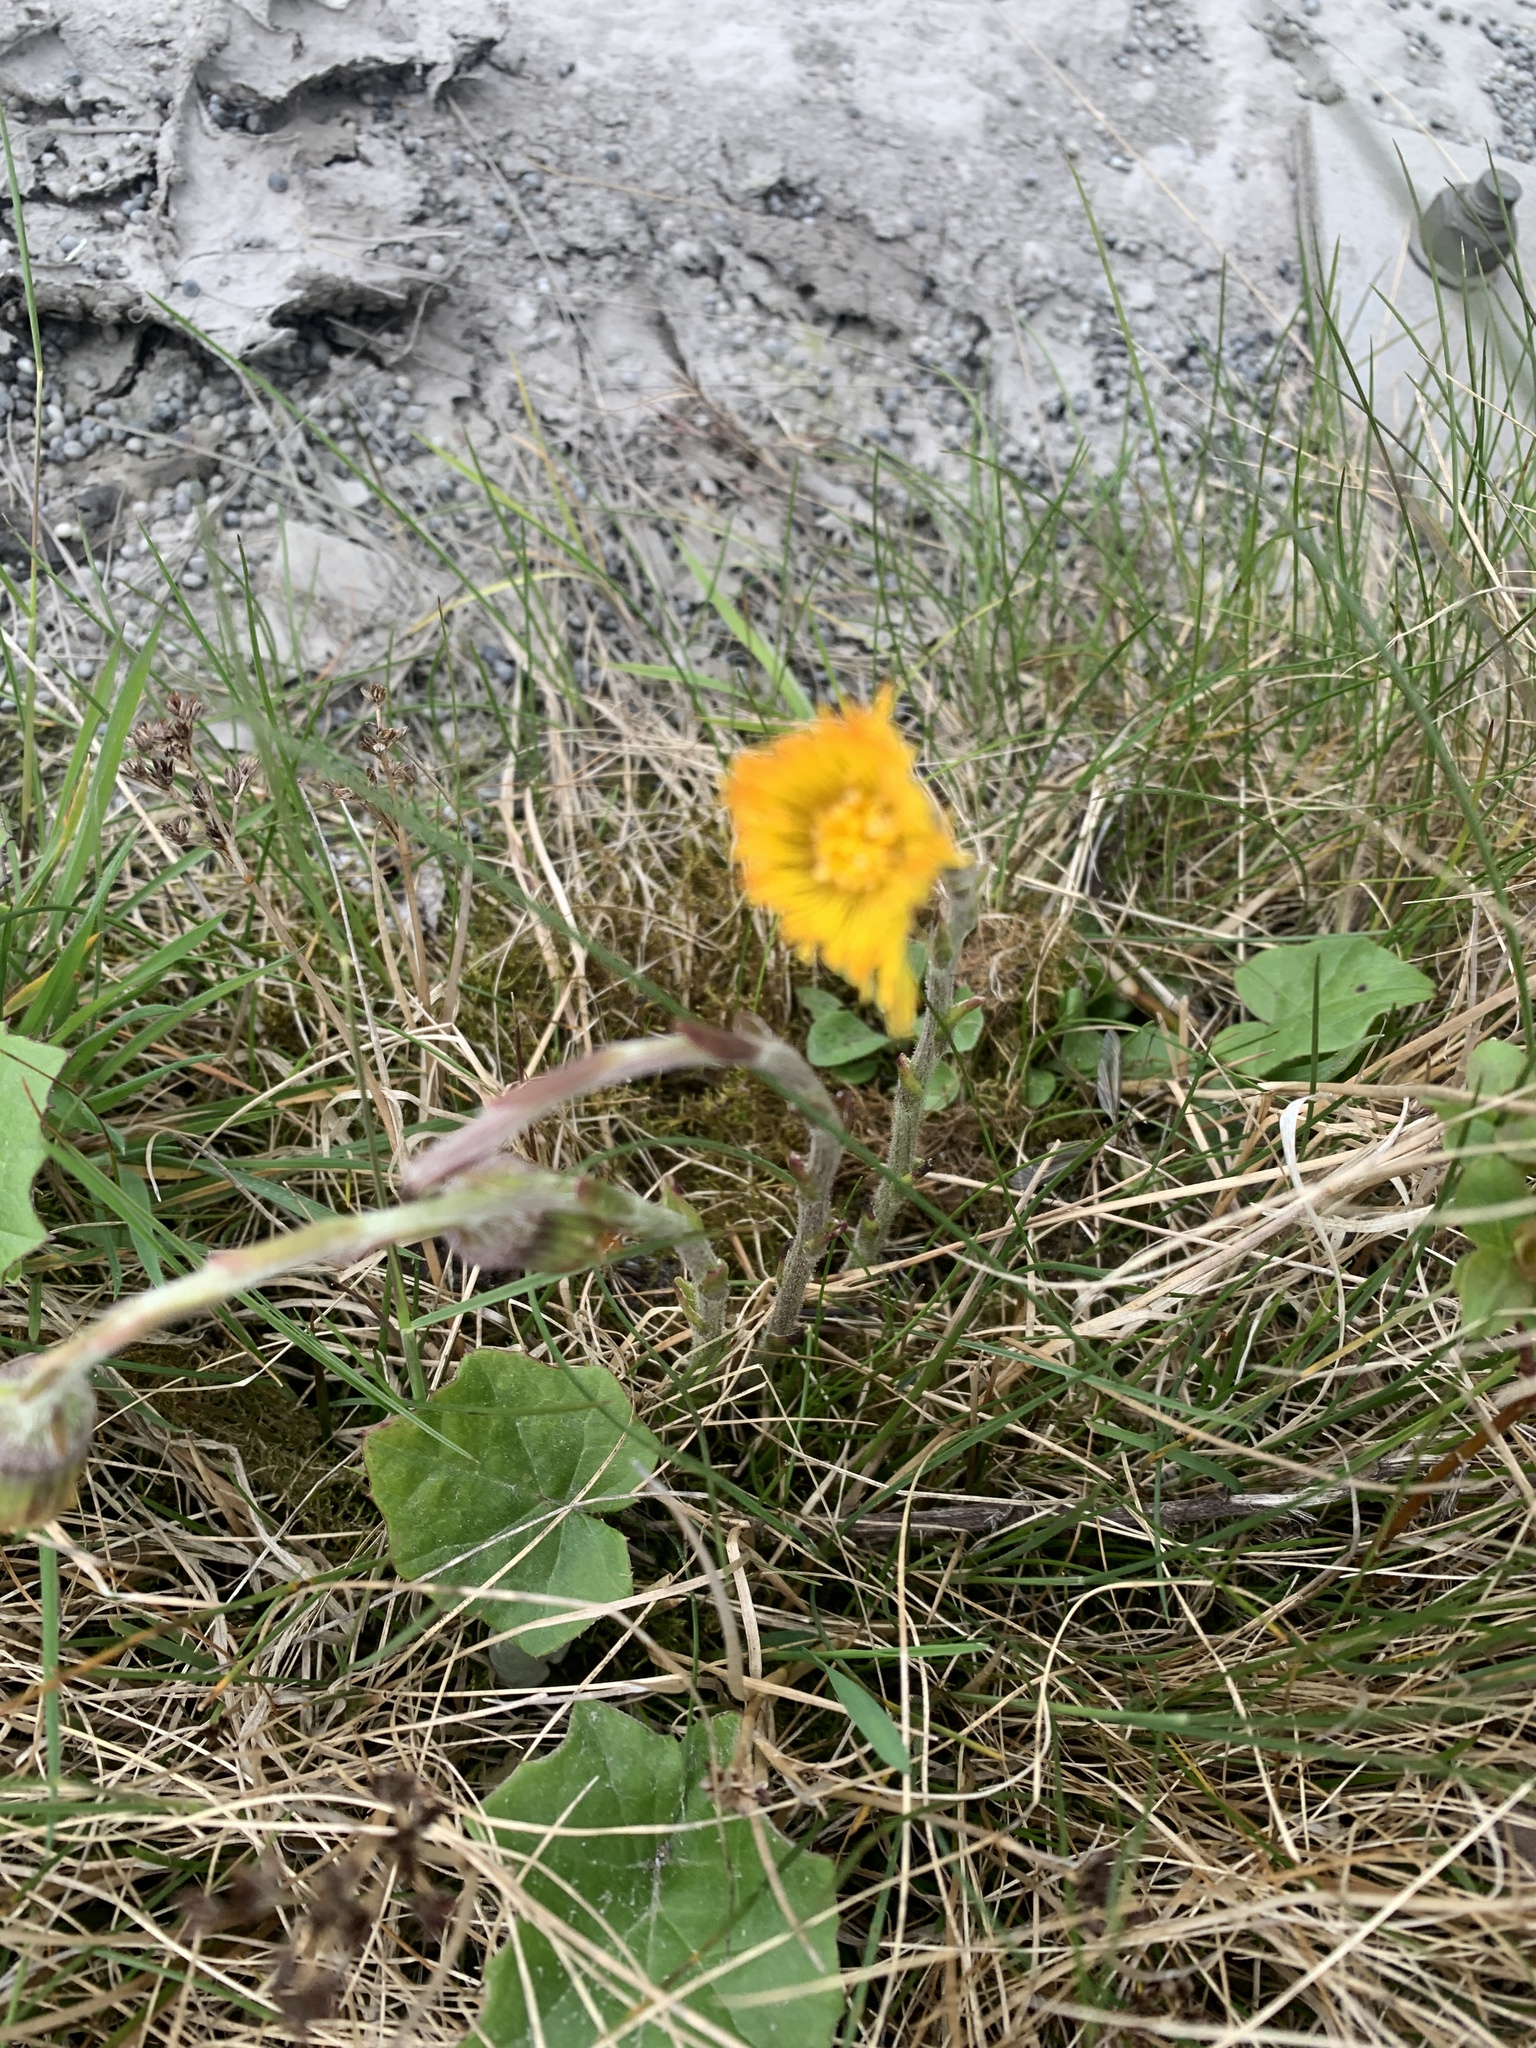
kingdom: Plantae
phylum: Tracheophyta
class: Magnoliopsida
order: Asterales
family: Asteraceae
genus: Tussilago
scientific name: Tussilago farfara
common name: Coltsfoot
